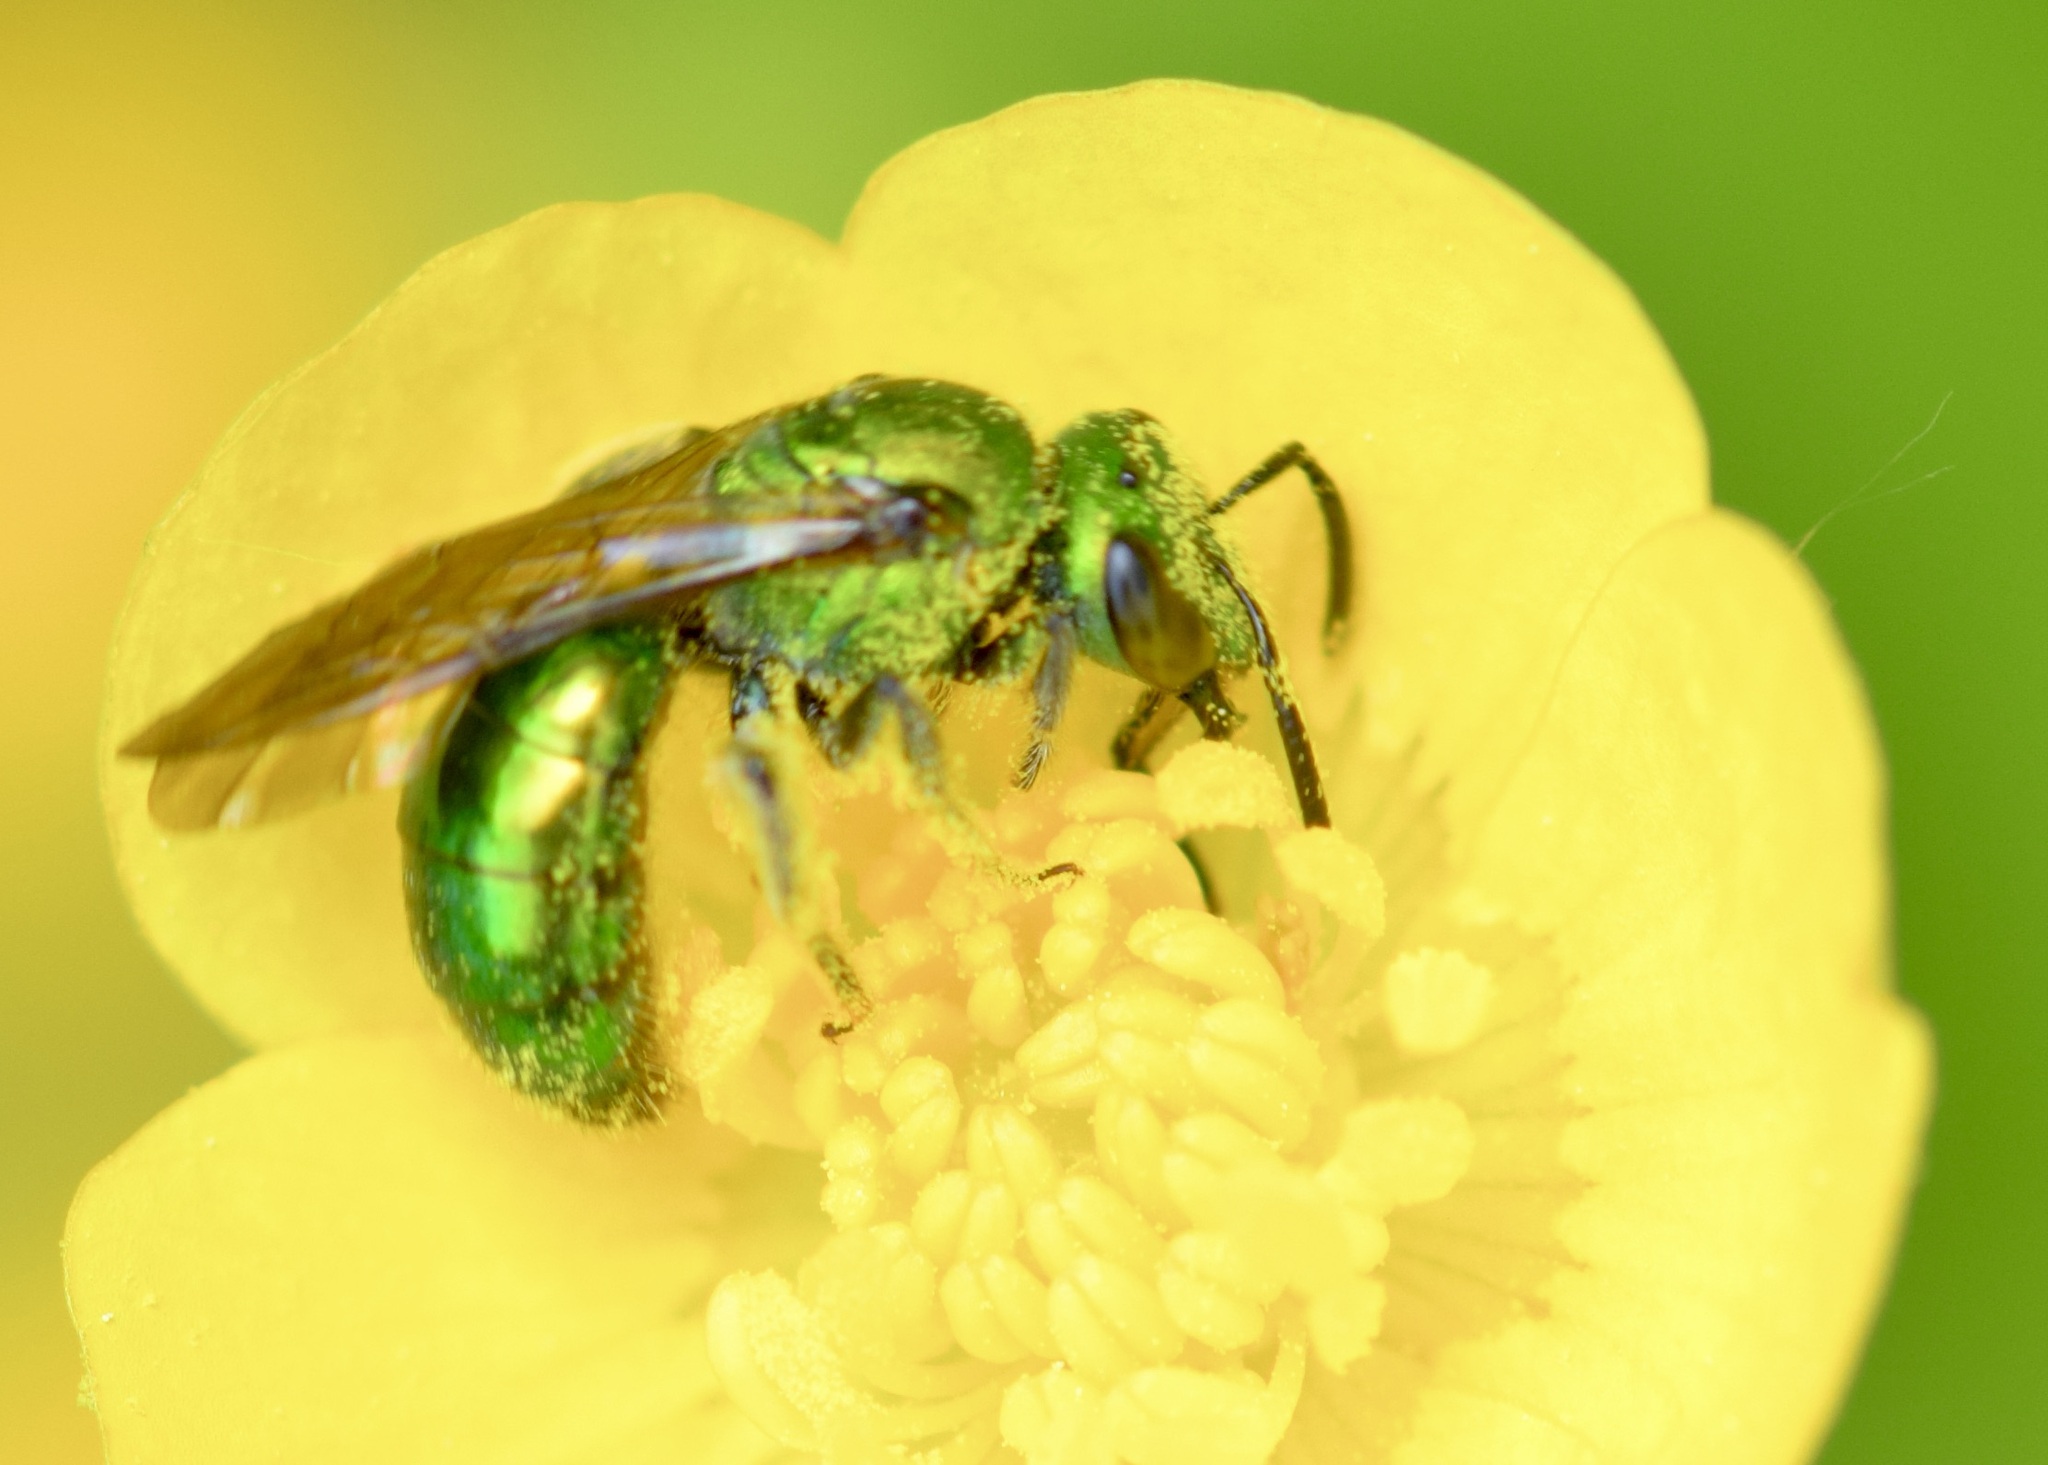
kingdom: Animalia
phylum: Arthropoda
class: Insecta
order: Hymenoptera
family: Halictidae
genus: Augochlora
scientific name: Augochlora pura
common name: Pure green sweat bee
